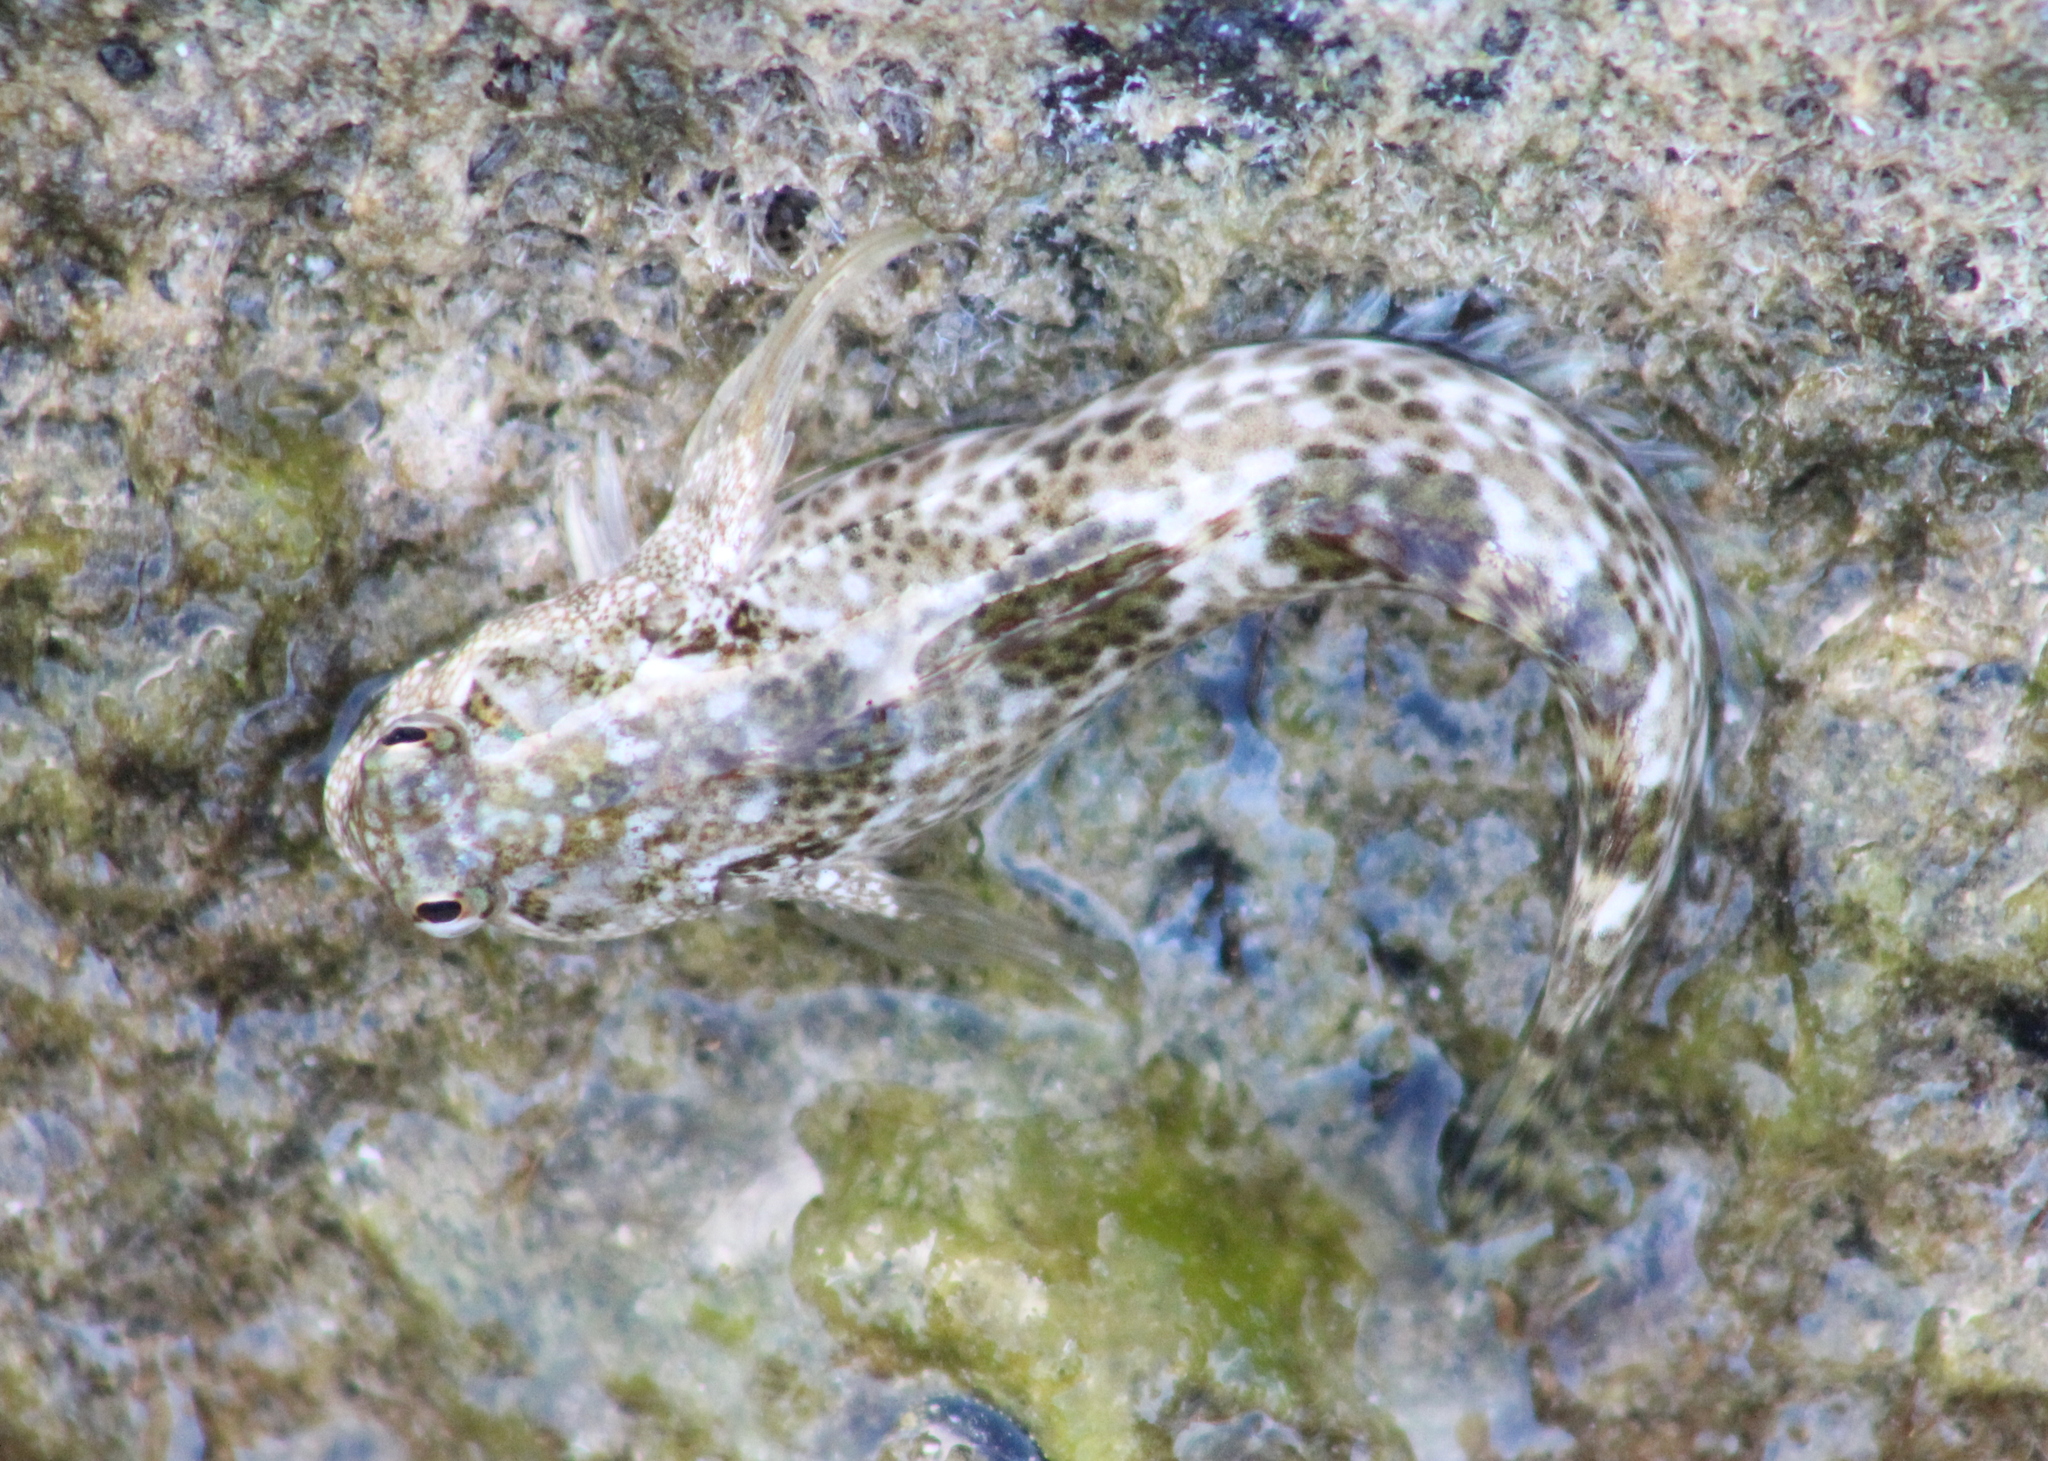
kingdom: Animalia
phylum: Chordata
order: Perciformes
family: Blenniidae
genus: Entomacrodus
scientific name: Entomacrodus striatus
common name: Pearly rockskipper
